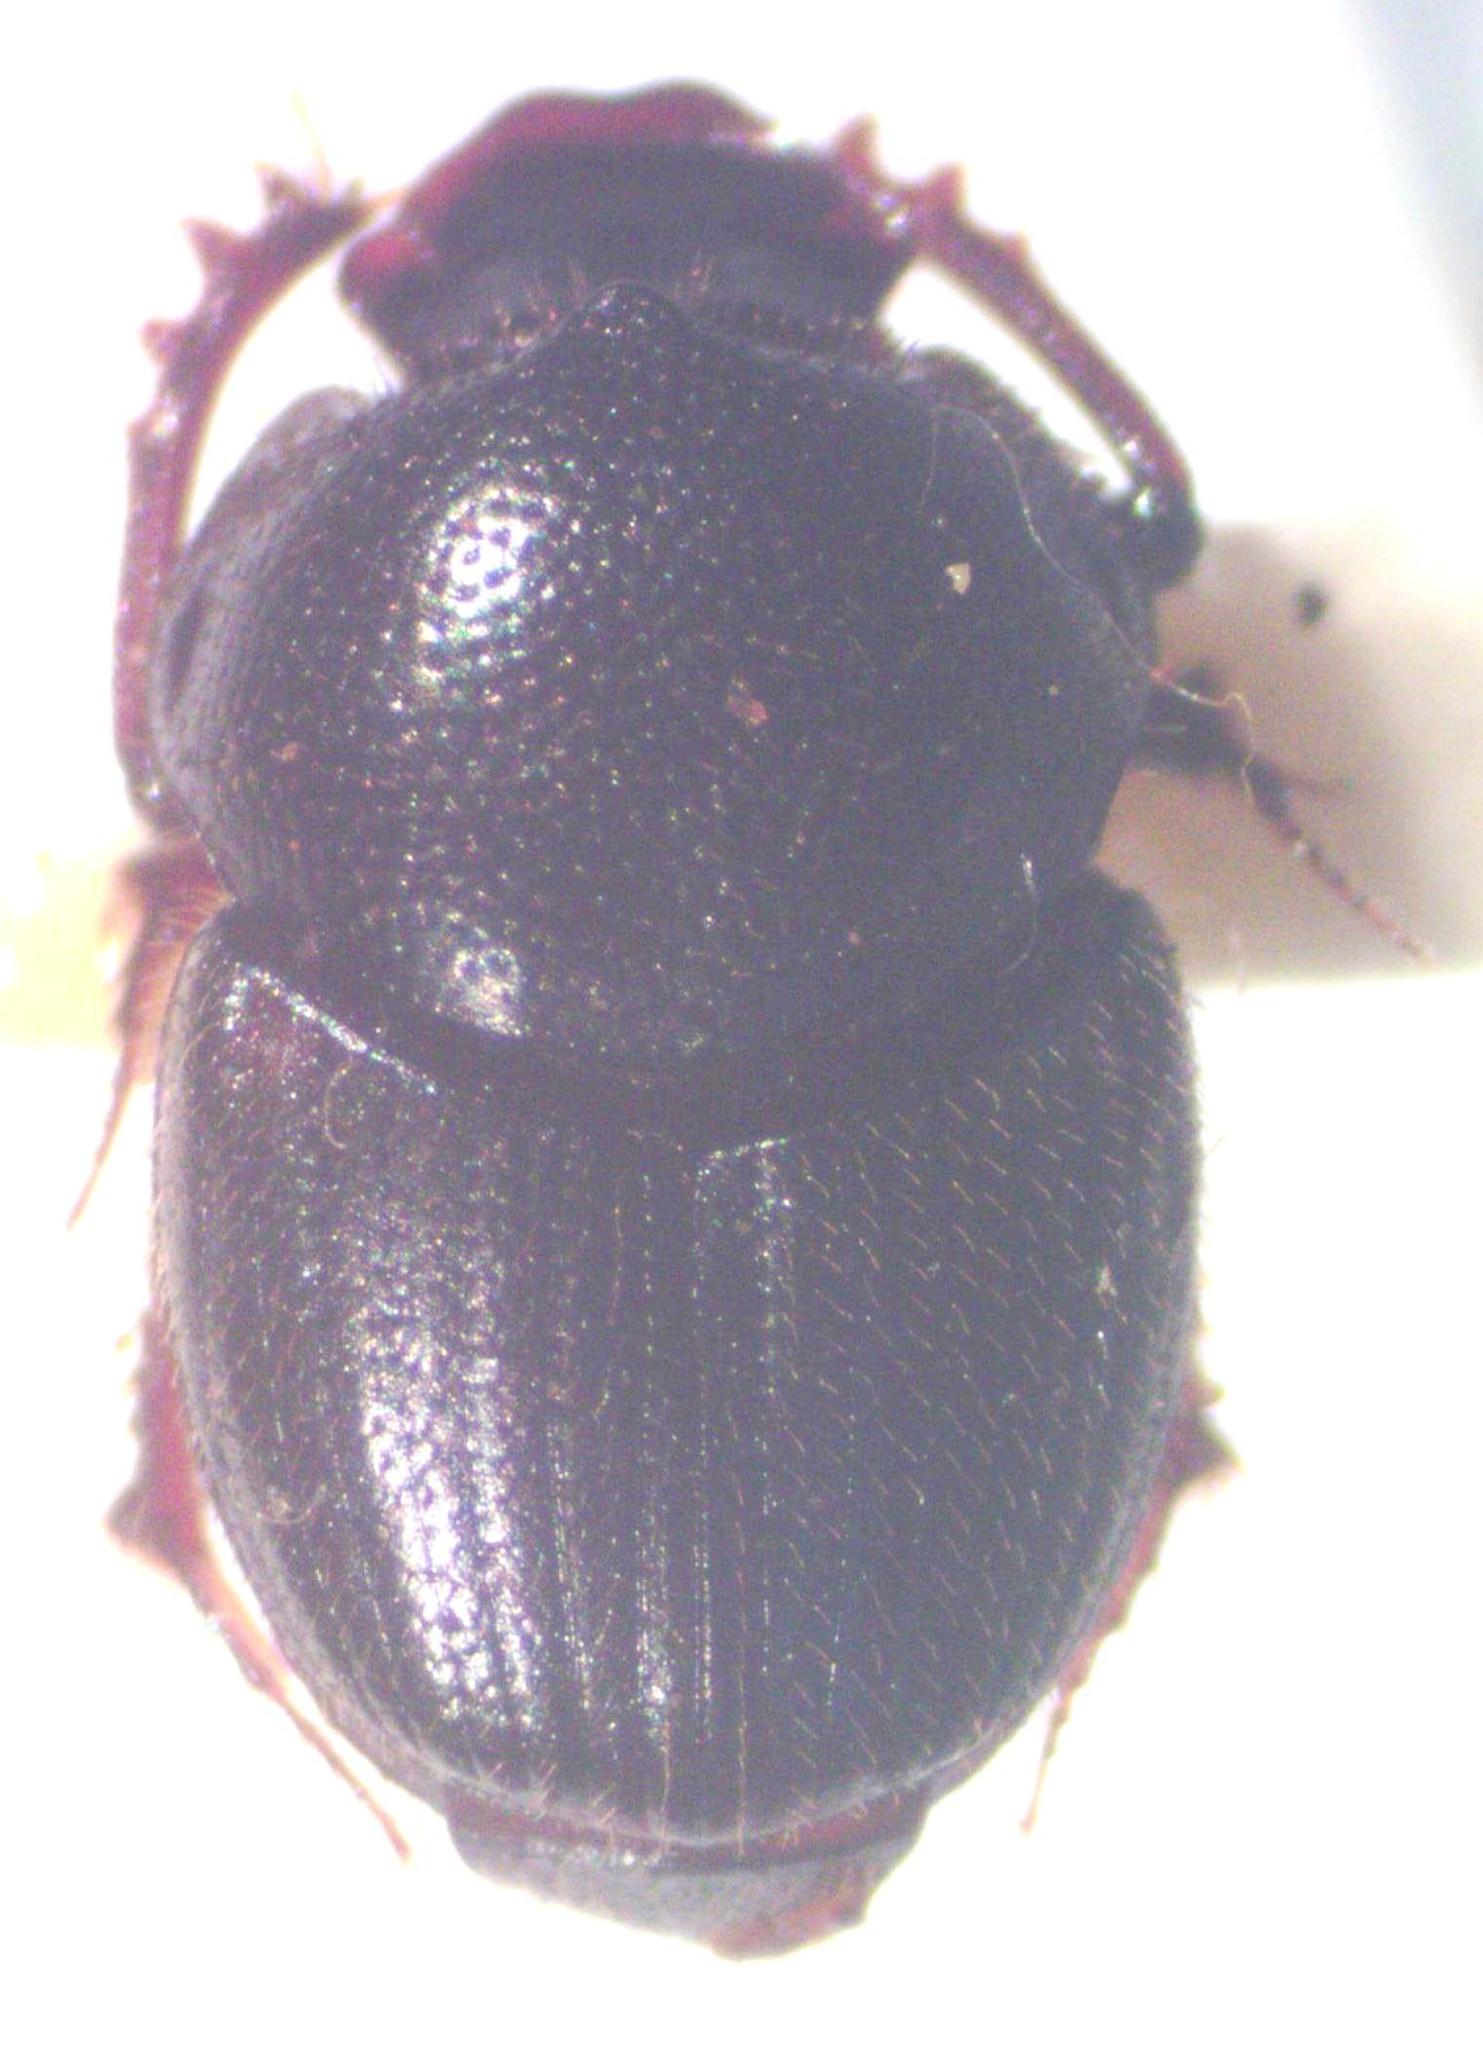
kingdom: Animalia
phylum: Arthropoda
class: Insecta
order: Coleoptera
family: Scarabaeidae
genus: Onthophagus
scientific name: Onthophagus landolti
